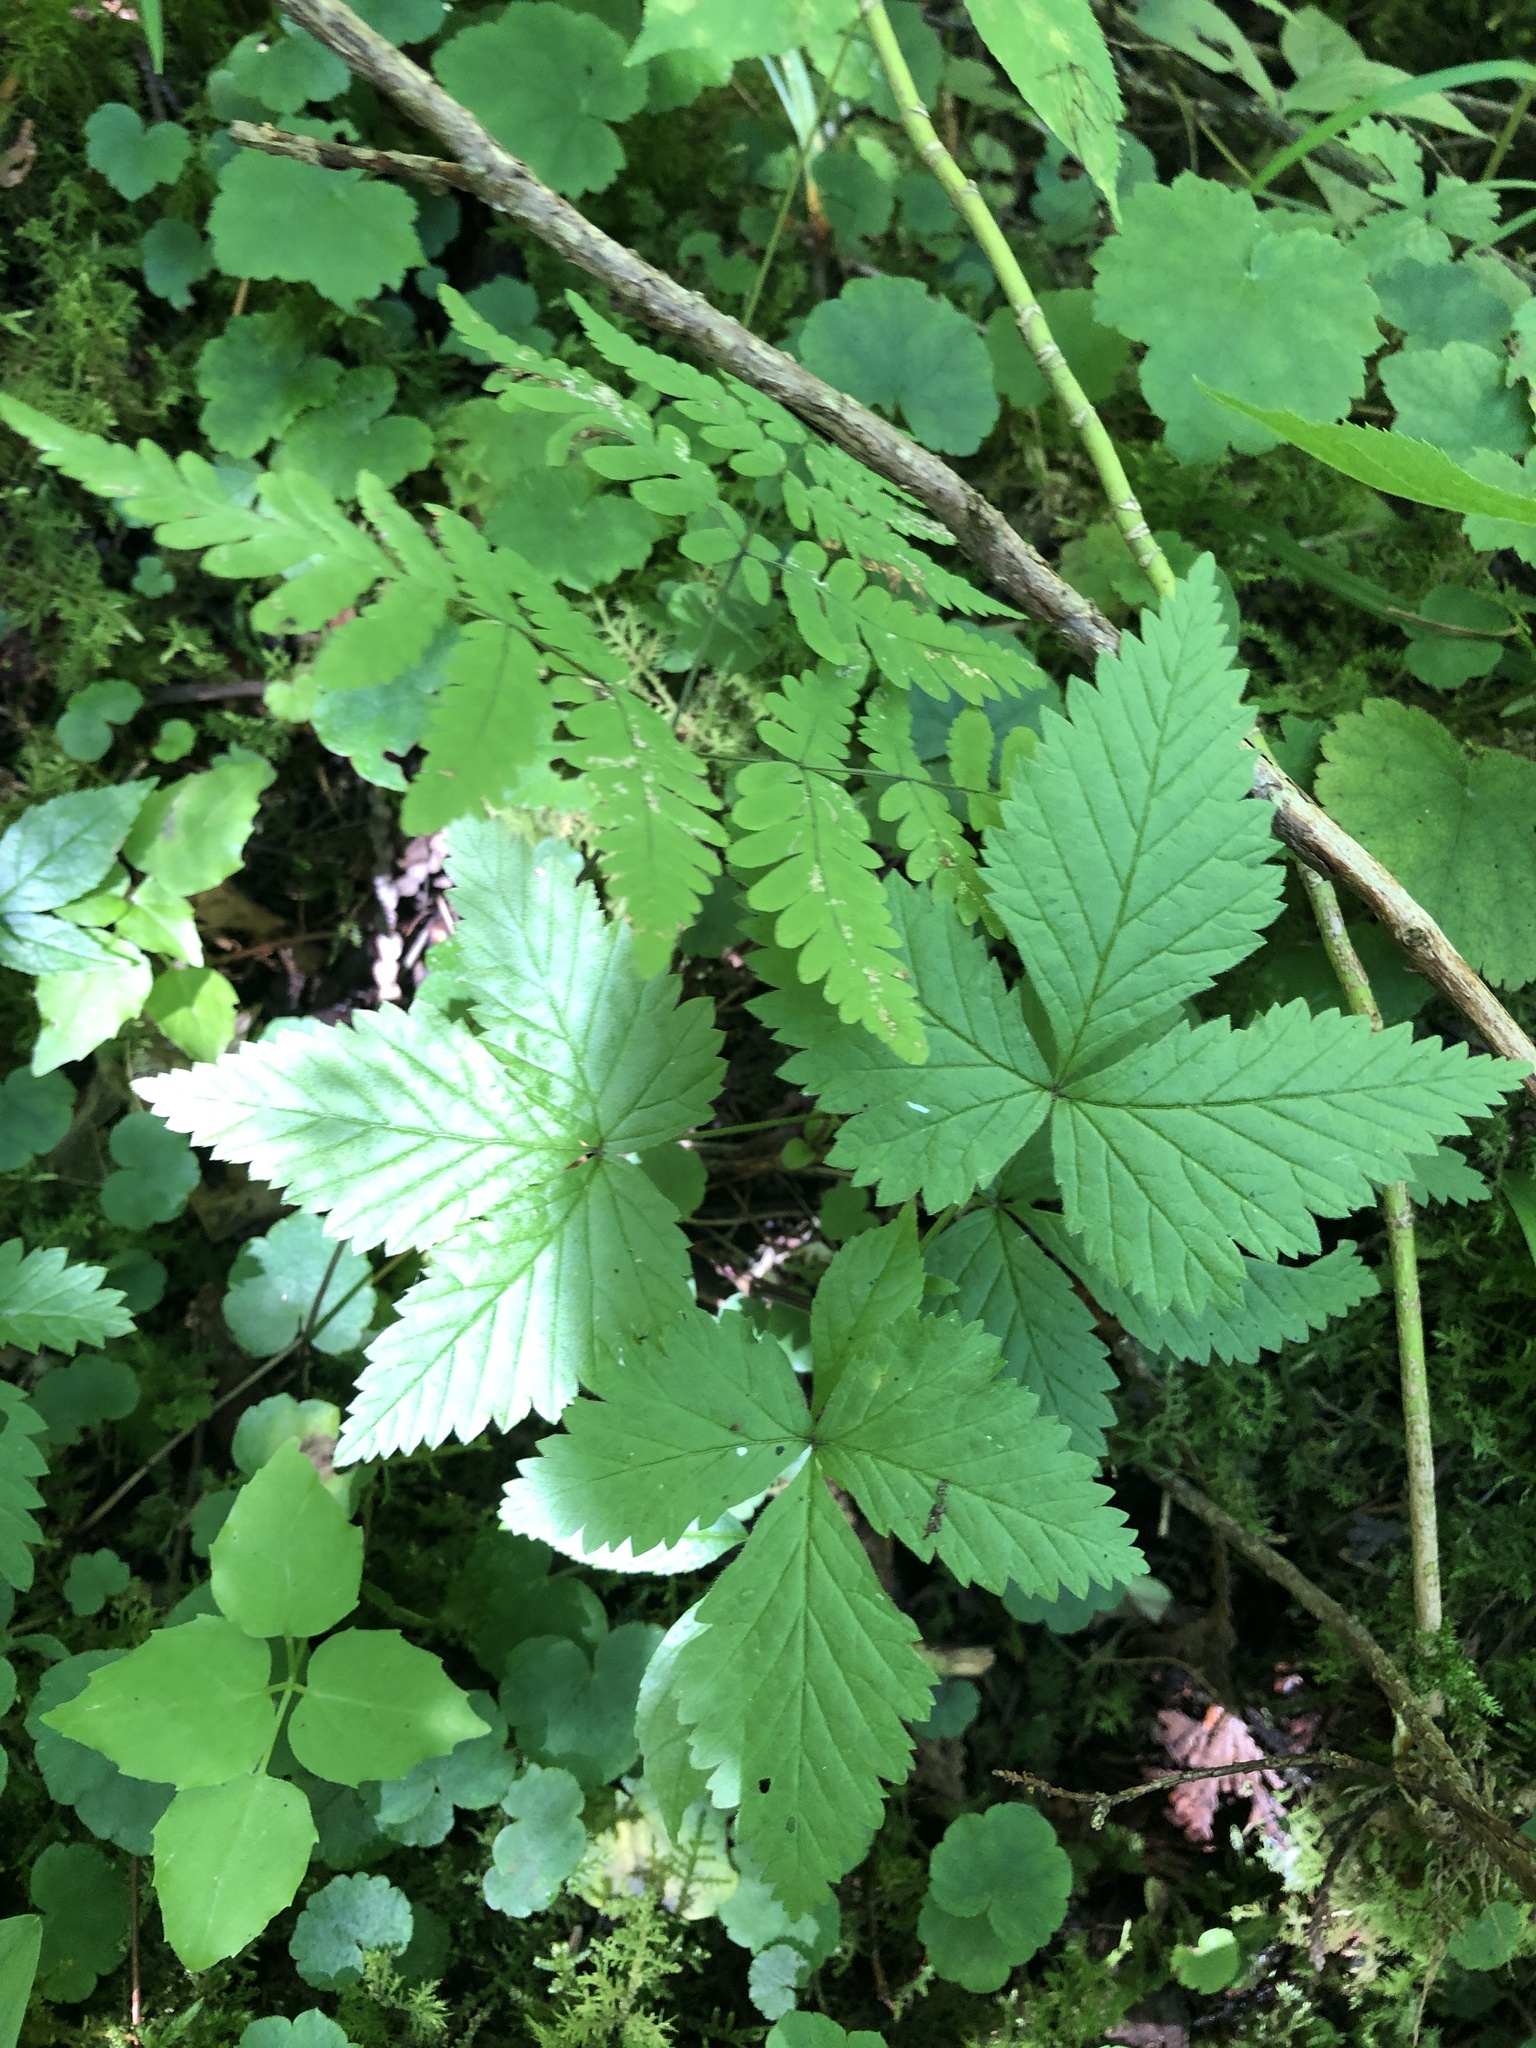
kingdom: Plantae
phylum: Tracheophyta
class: Magnoliopsida
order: Rosales
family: Rosaceae
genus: Rubus
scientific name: Rubus pubescens
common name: Dwarf raspberry
